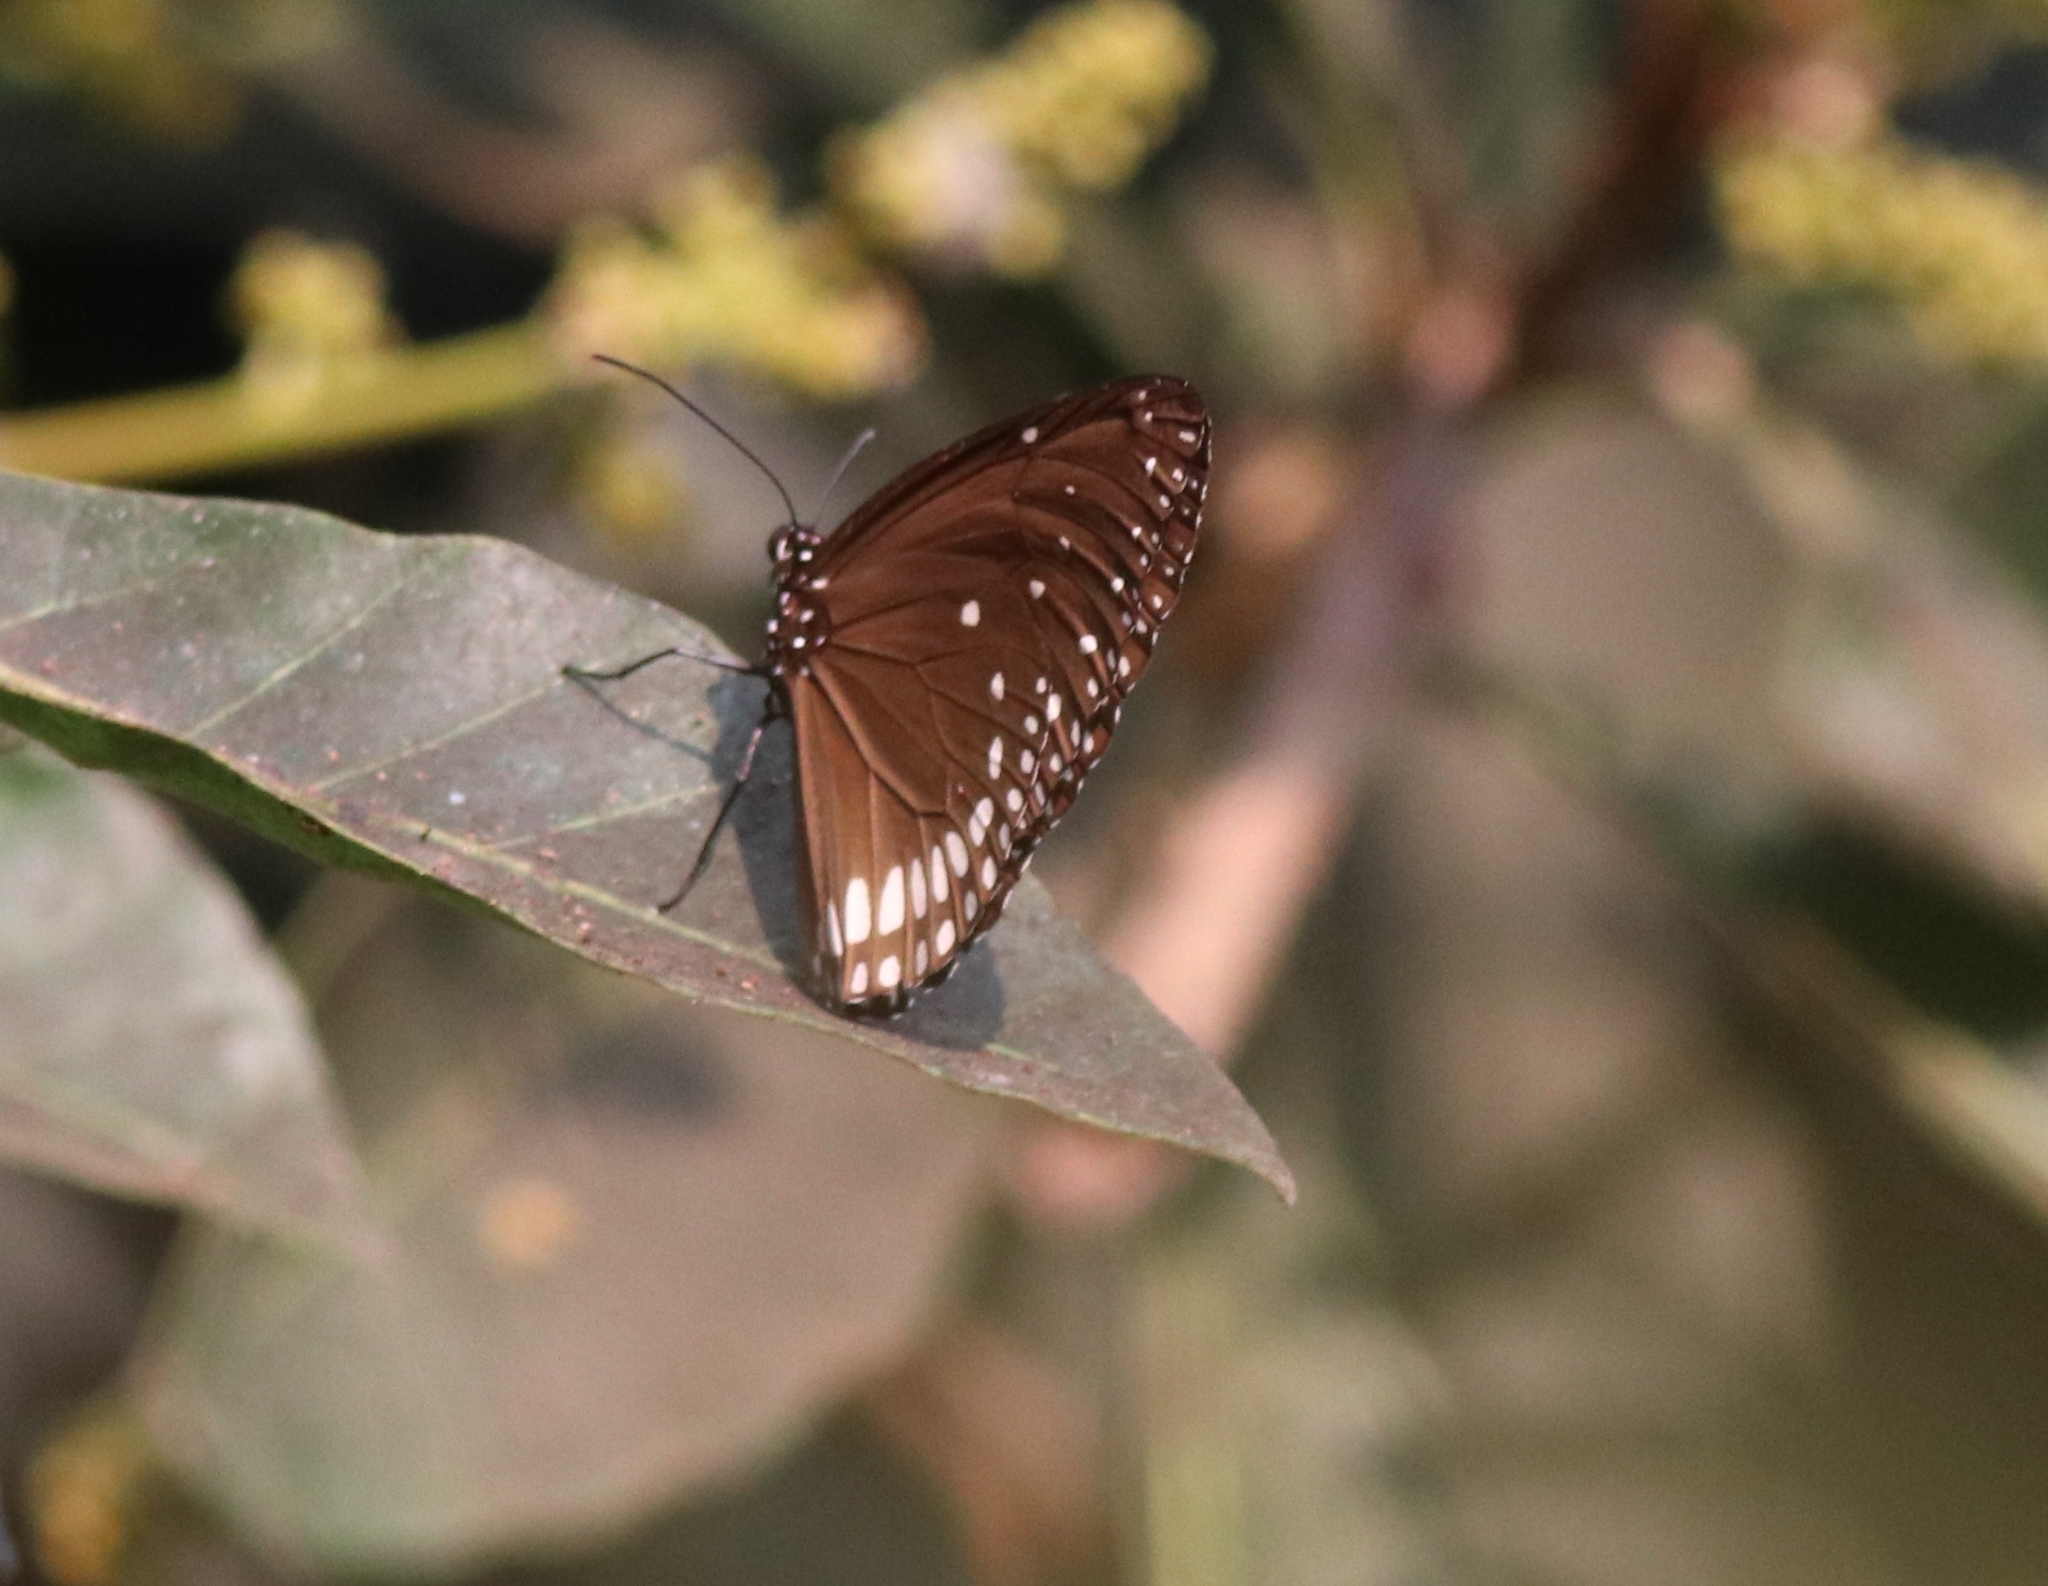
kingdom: Animalia
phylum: Arthropoda
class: Insecta
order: Lepidoptera
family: Nymphalidae
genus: Euploea
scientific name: Euploea klugii
